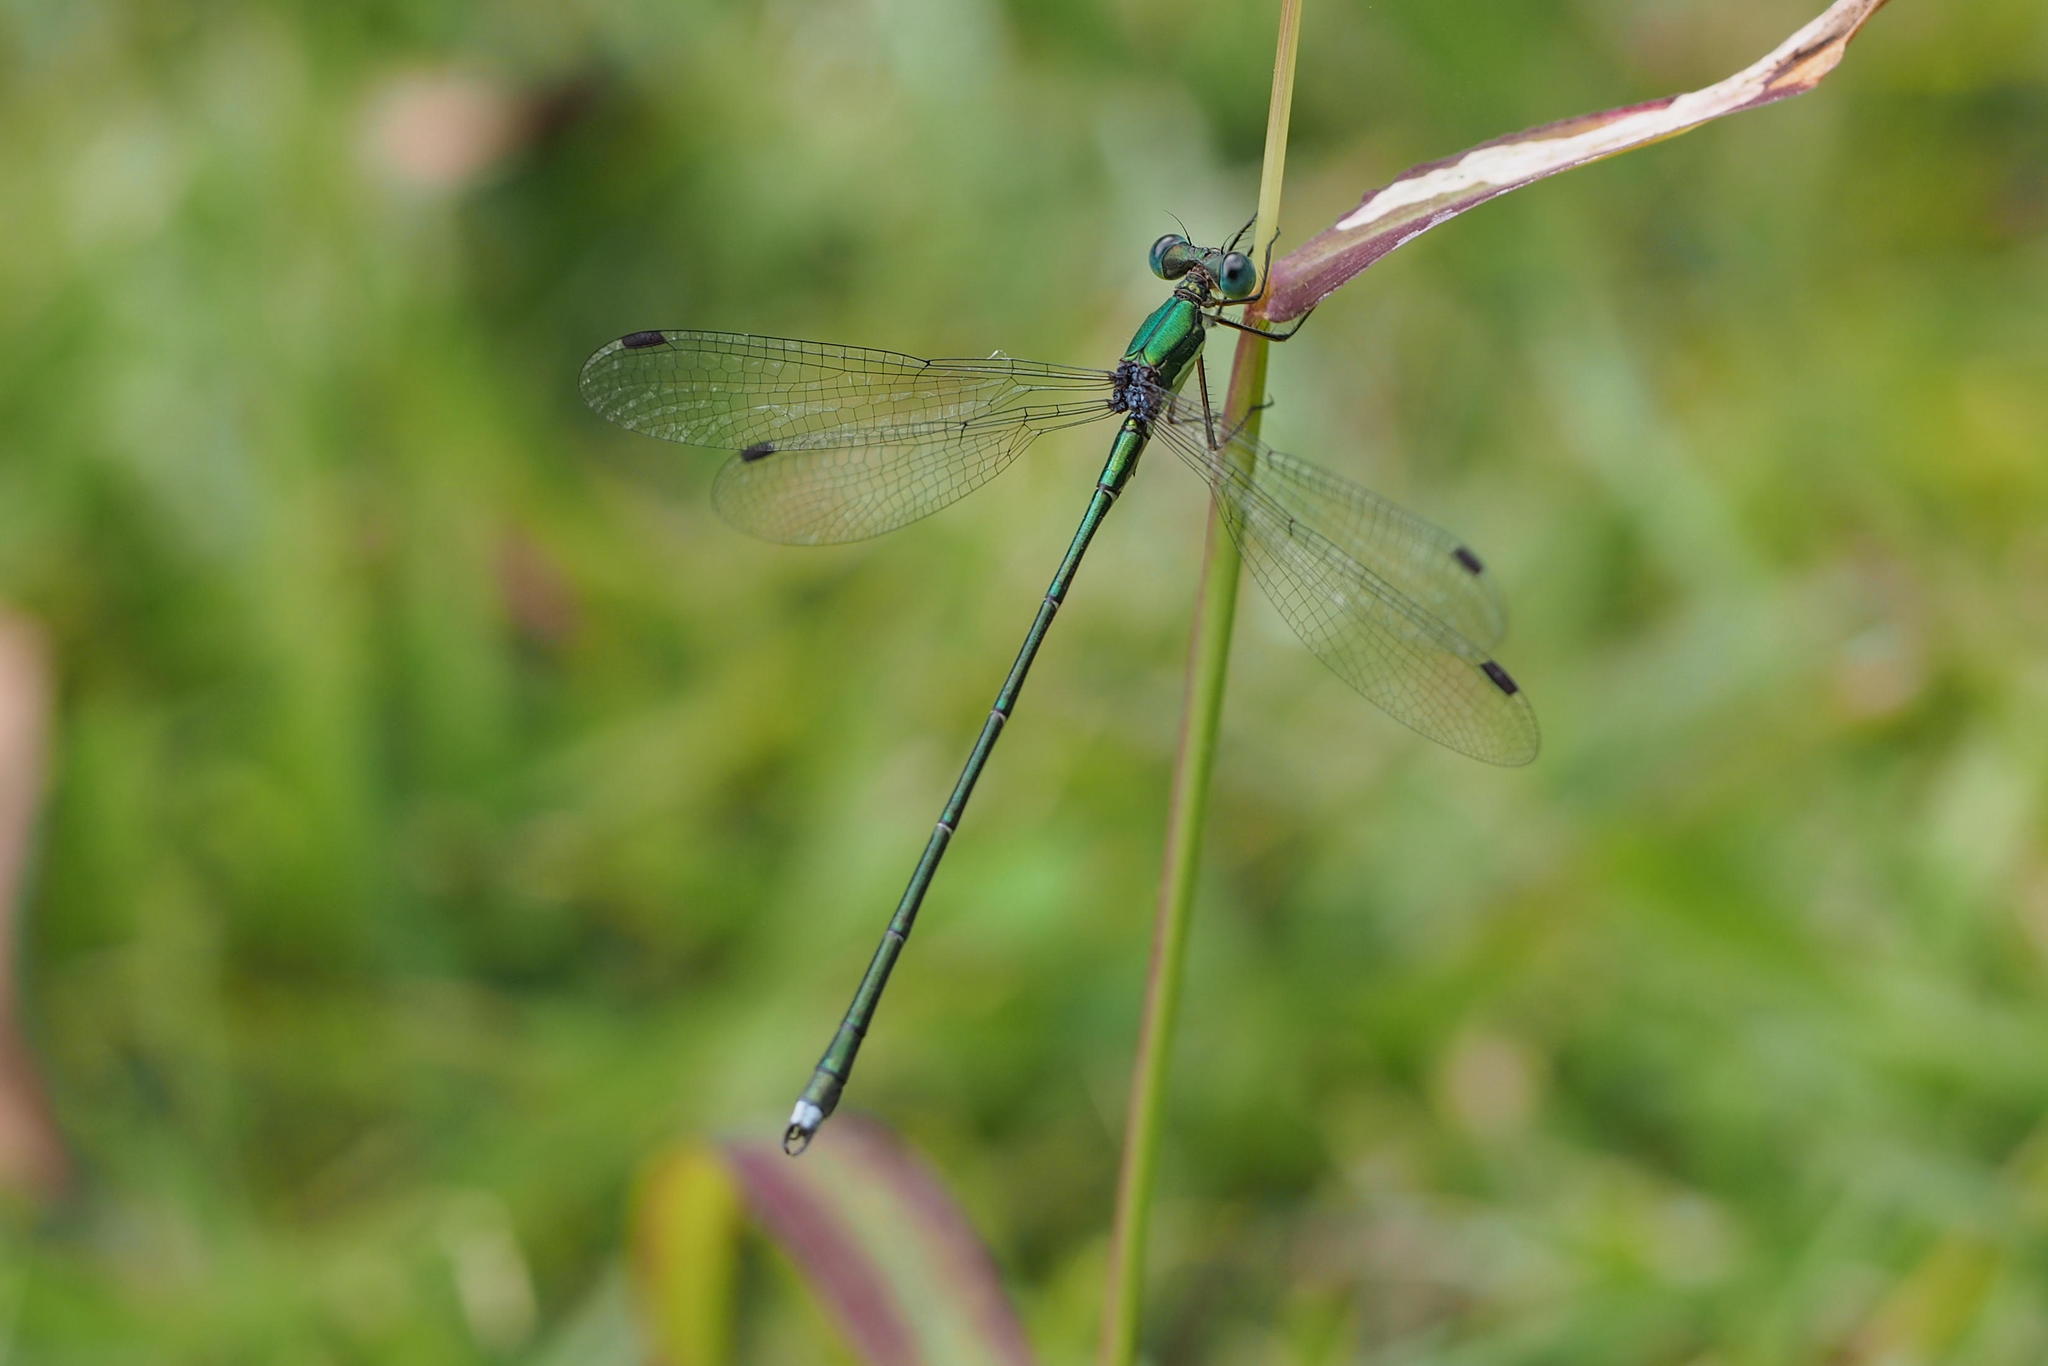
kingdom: Animalia
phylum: Arthropoda
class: Insecta
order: Odonata
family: Lestidae
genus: Lestes
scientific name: Lestes temporalis
